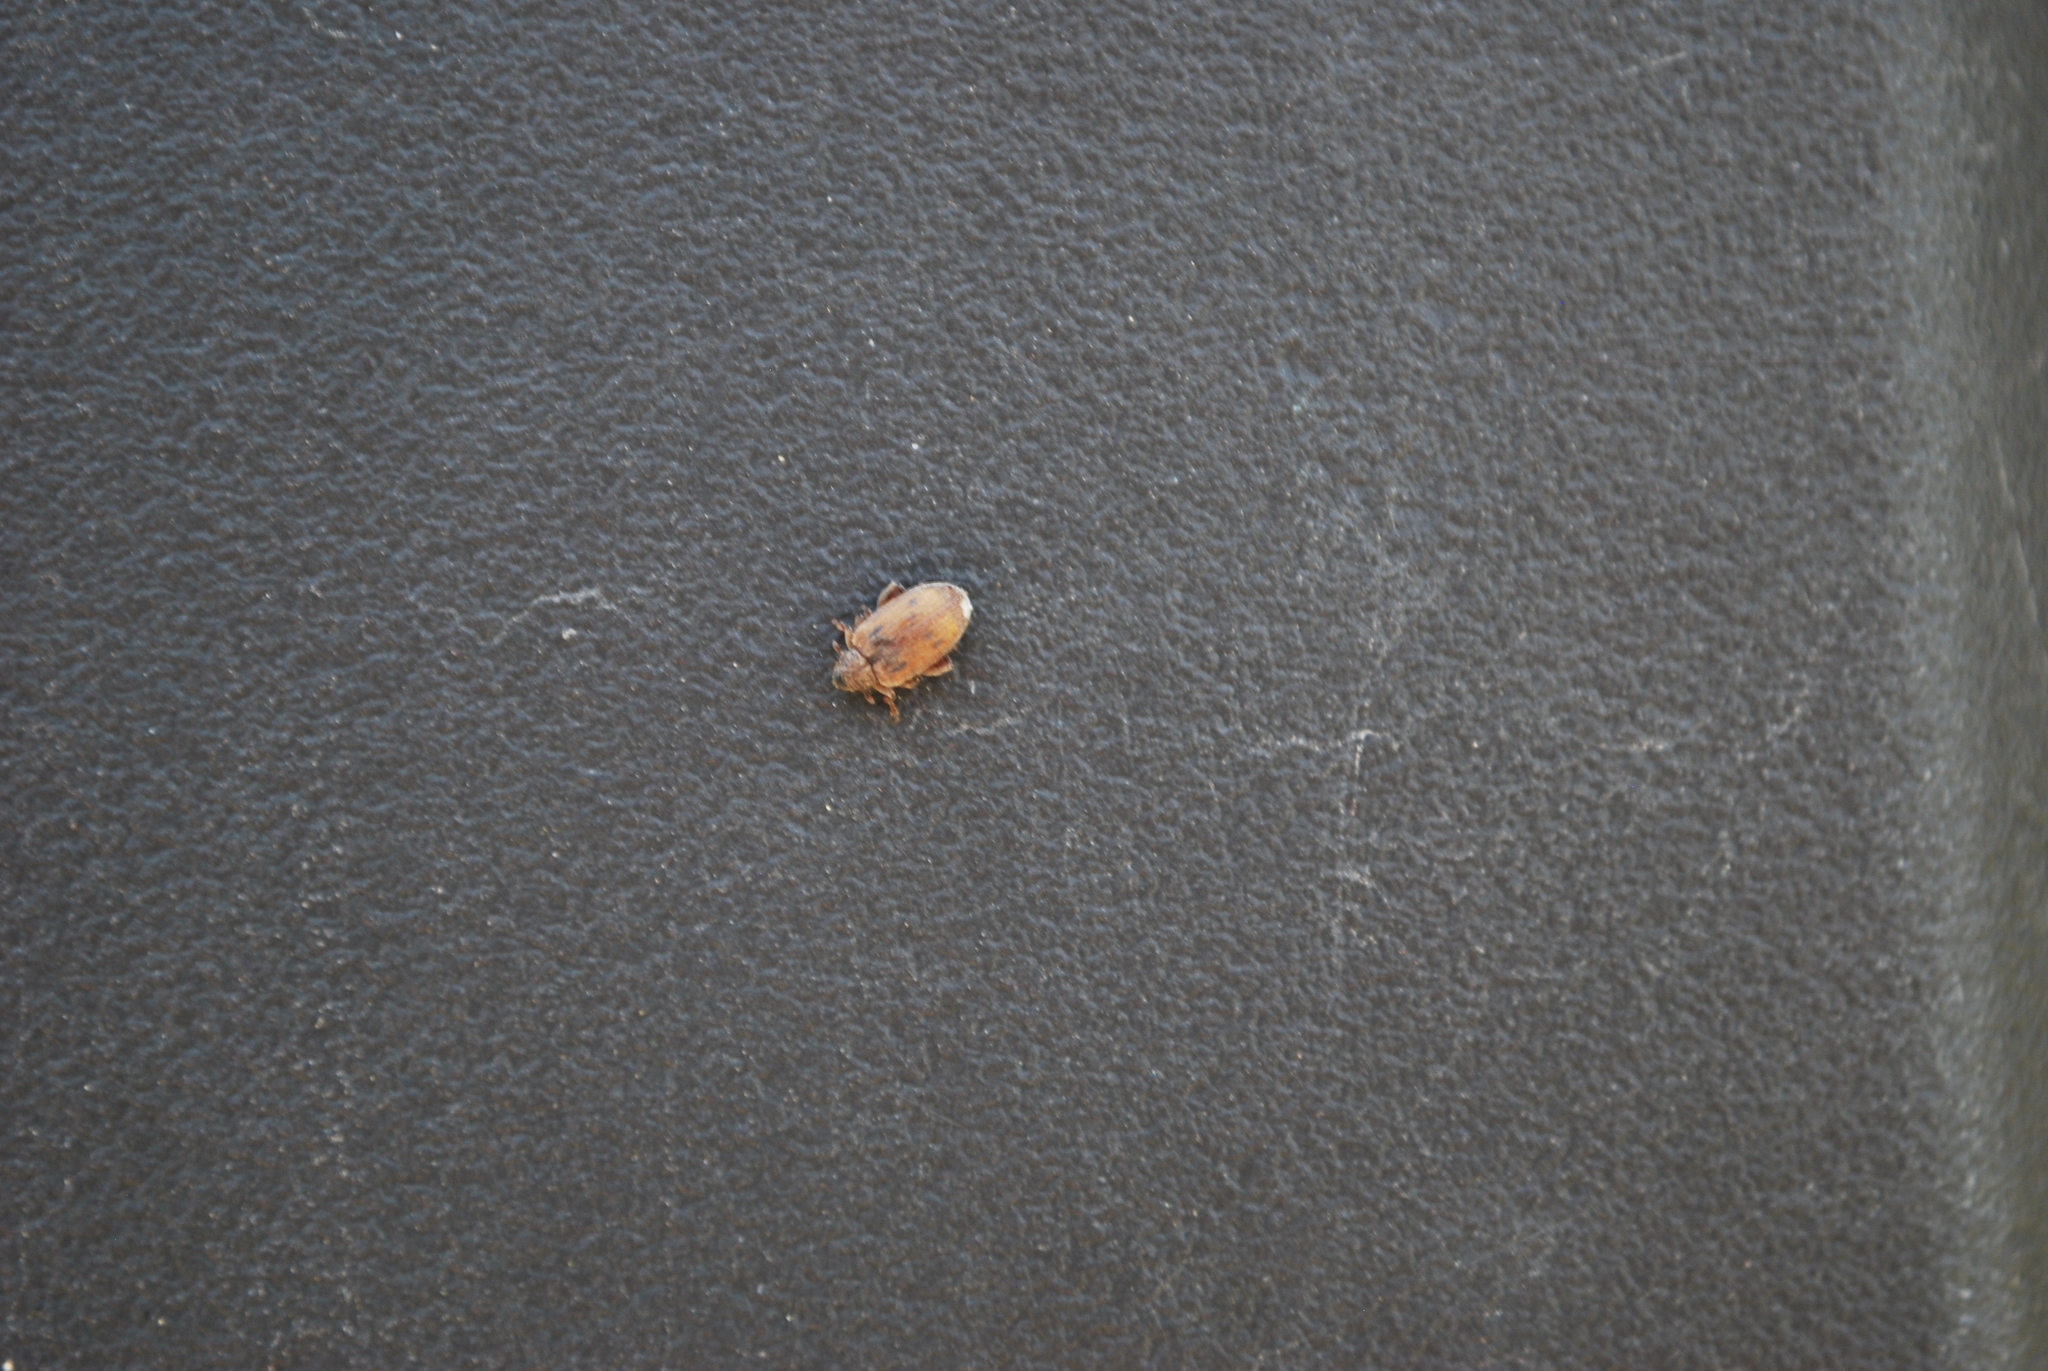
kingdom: Animalia
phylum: Arthropoda
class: Insecta
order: Coleoptera
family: Curculionidae
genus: Orchestes
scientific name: Orchestes steppensis
